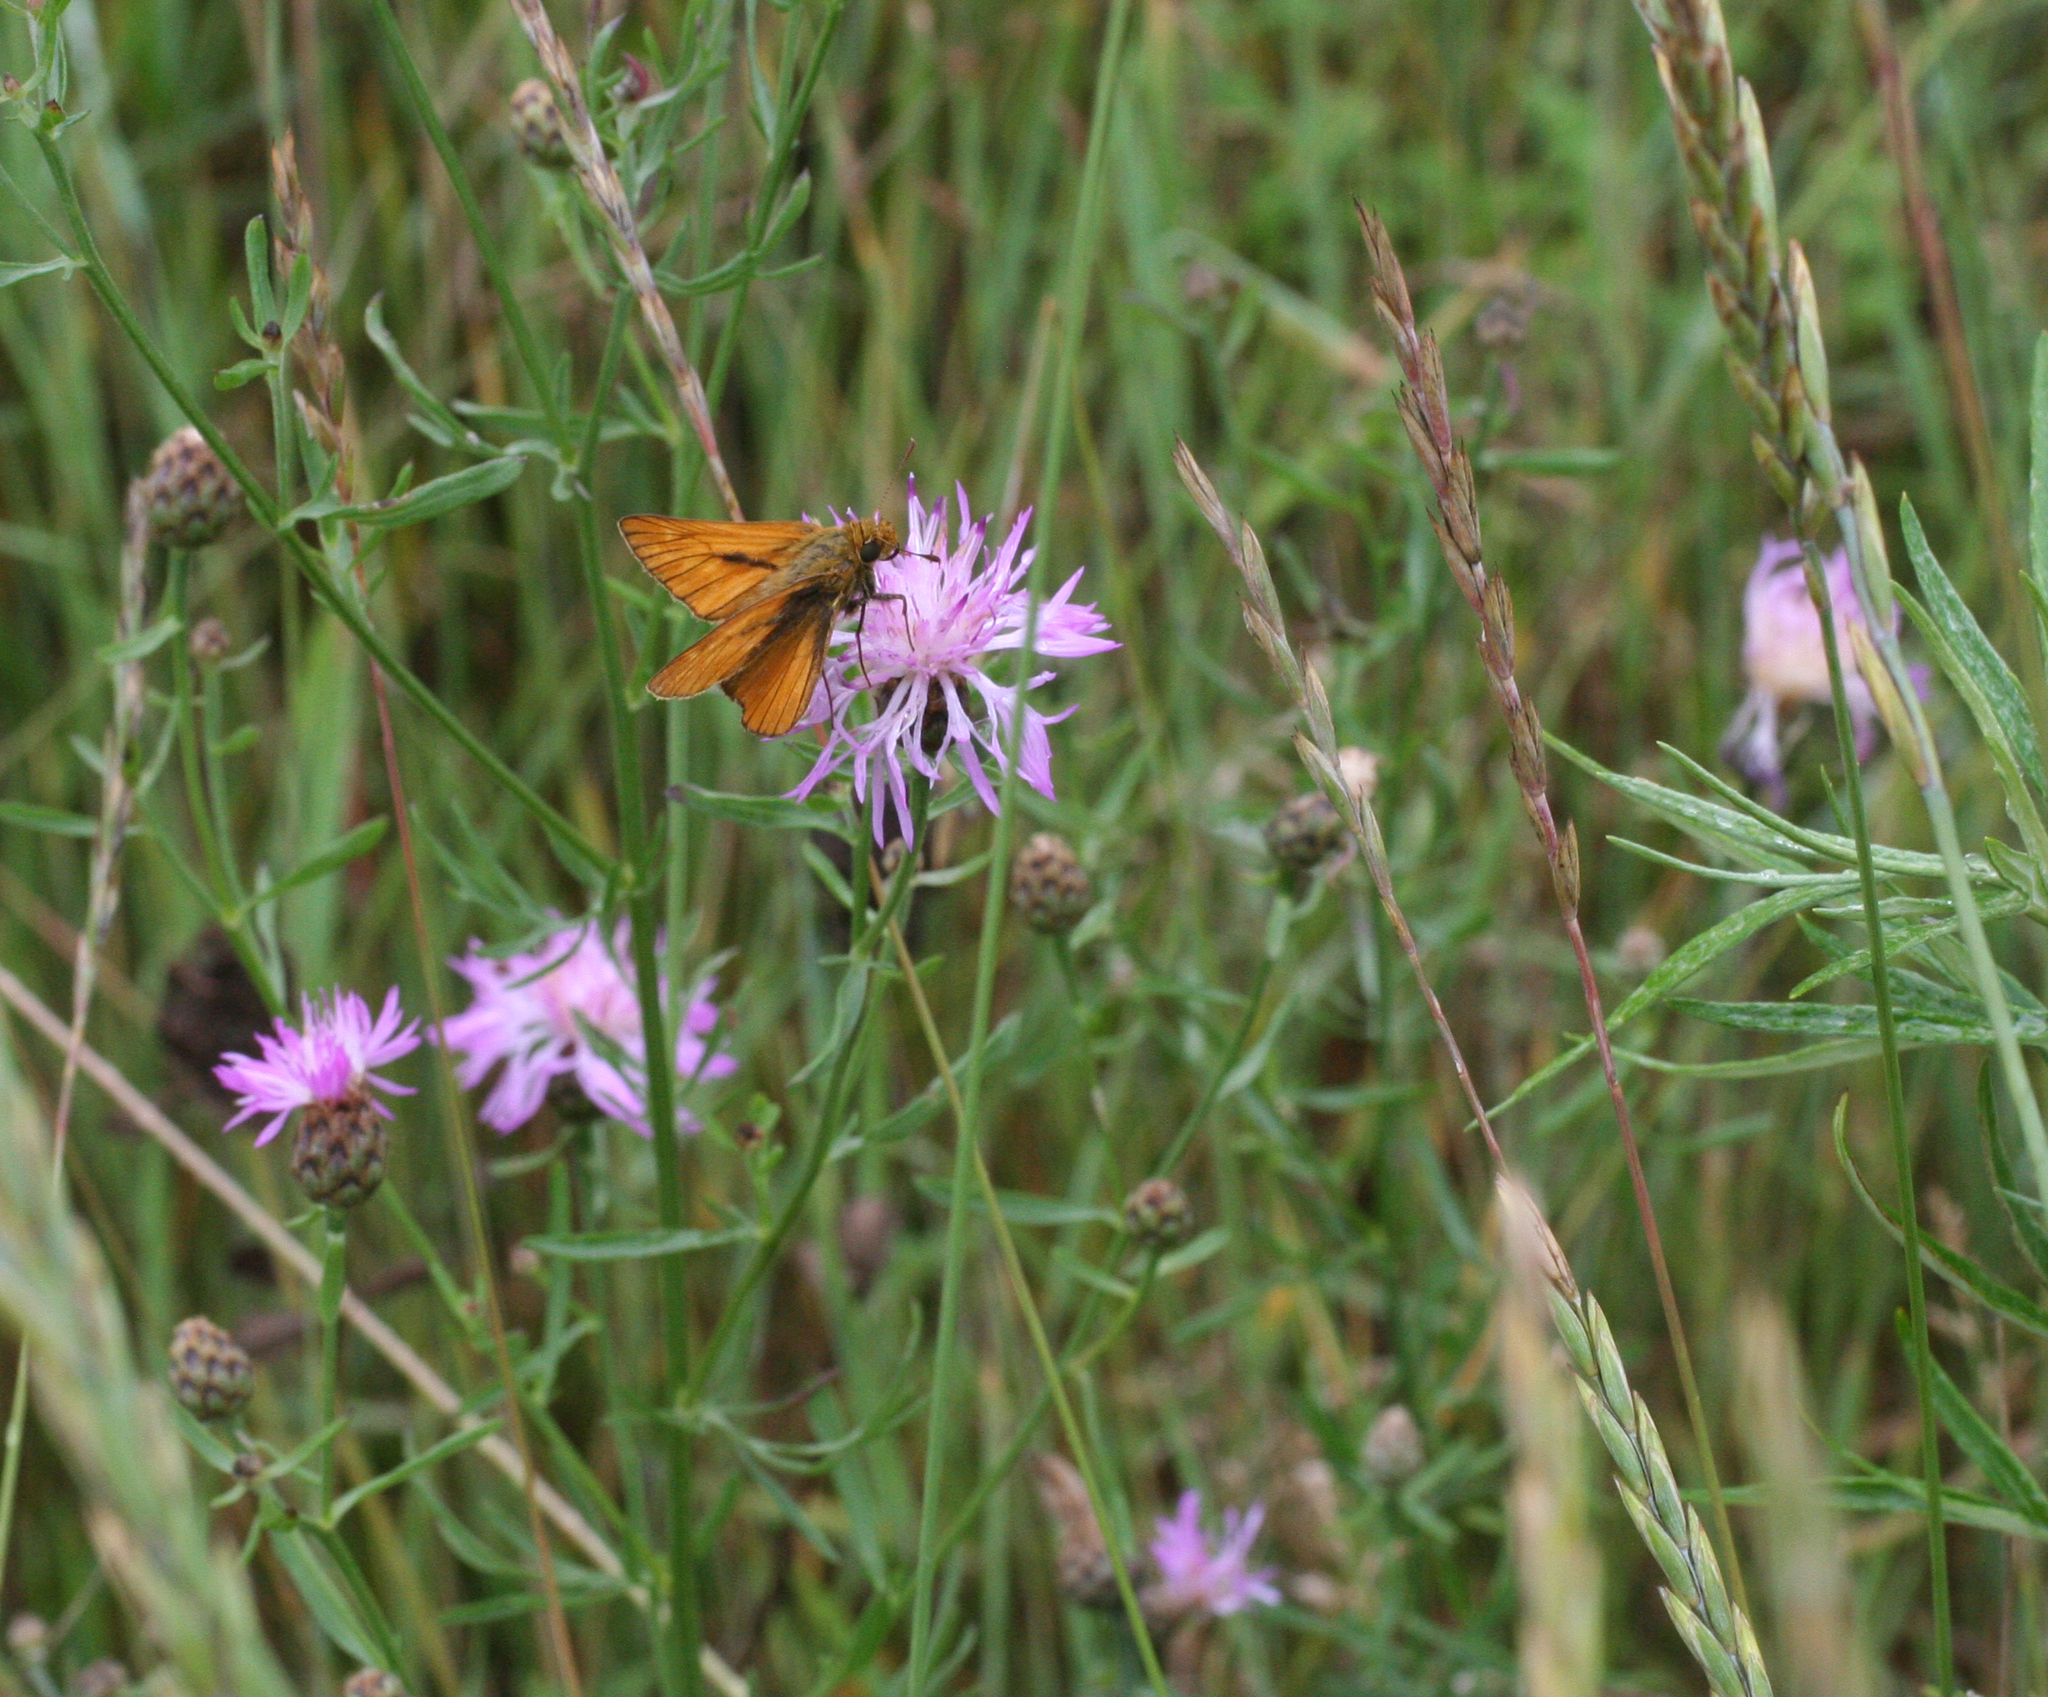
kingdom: Animalia
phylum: Arthropoda
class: Insecta
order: Lepidoptera
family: Hesperiidae
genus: Ochlodes
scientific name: Ochlodes venata
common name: Large skipper
